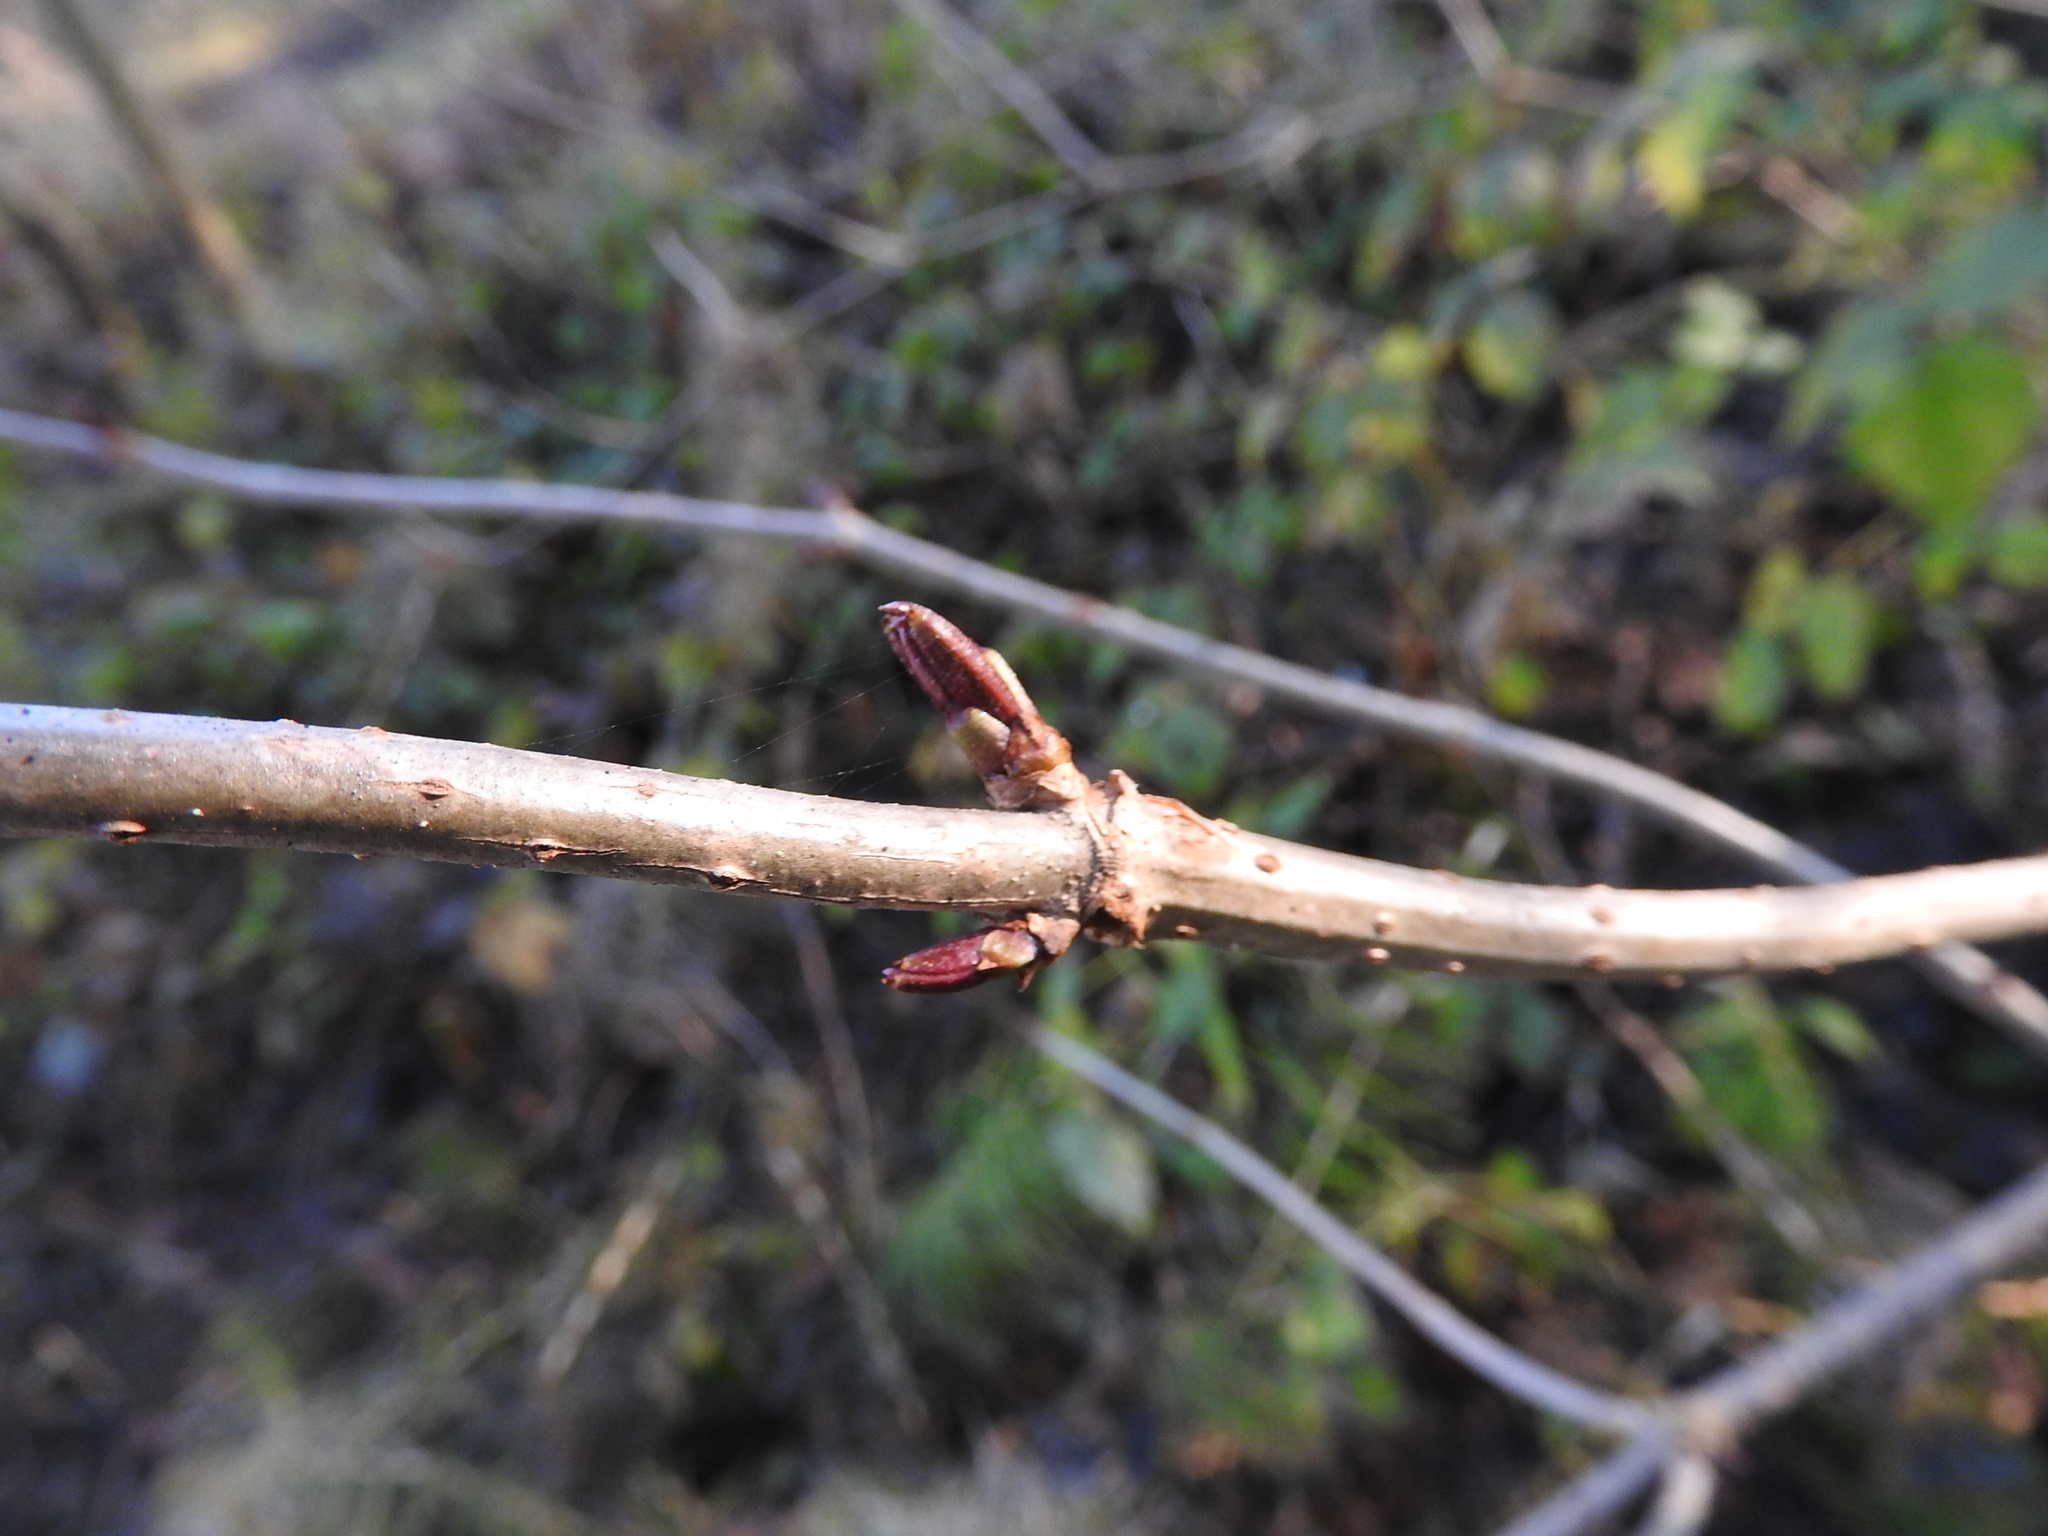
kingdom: Plantae
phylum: Tracheophyta
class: Magnoliopsida
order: Dipsacales
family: Viburnaceae
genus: Sambucus
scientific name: Sambucus nigra
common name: Elder
